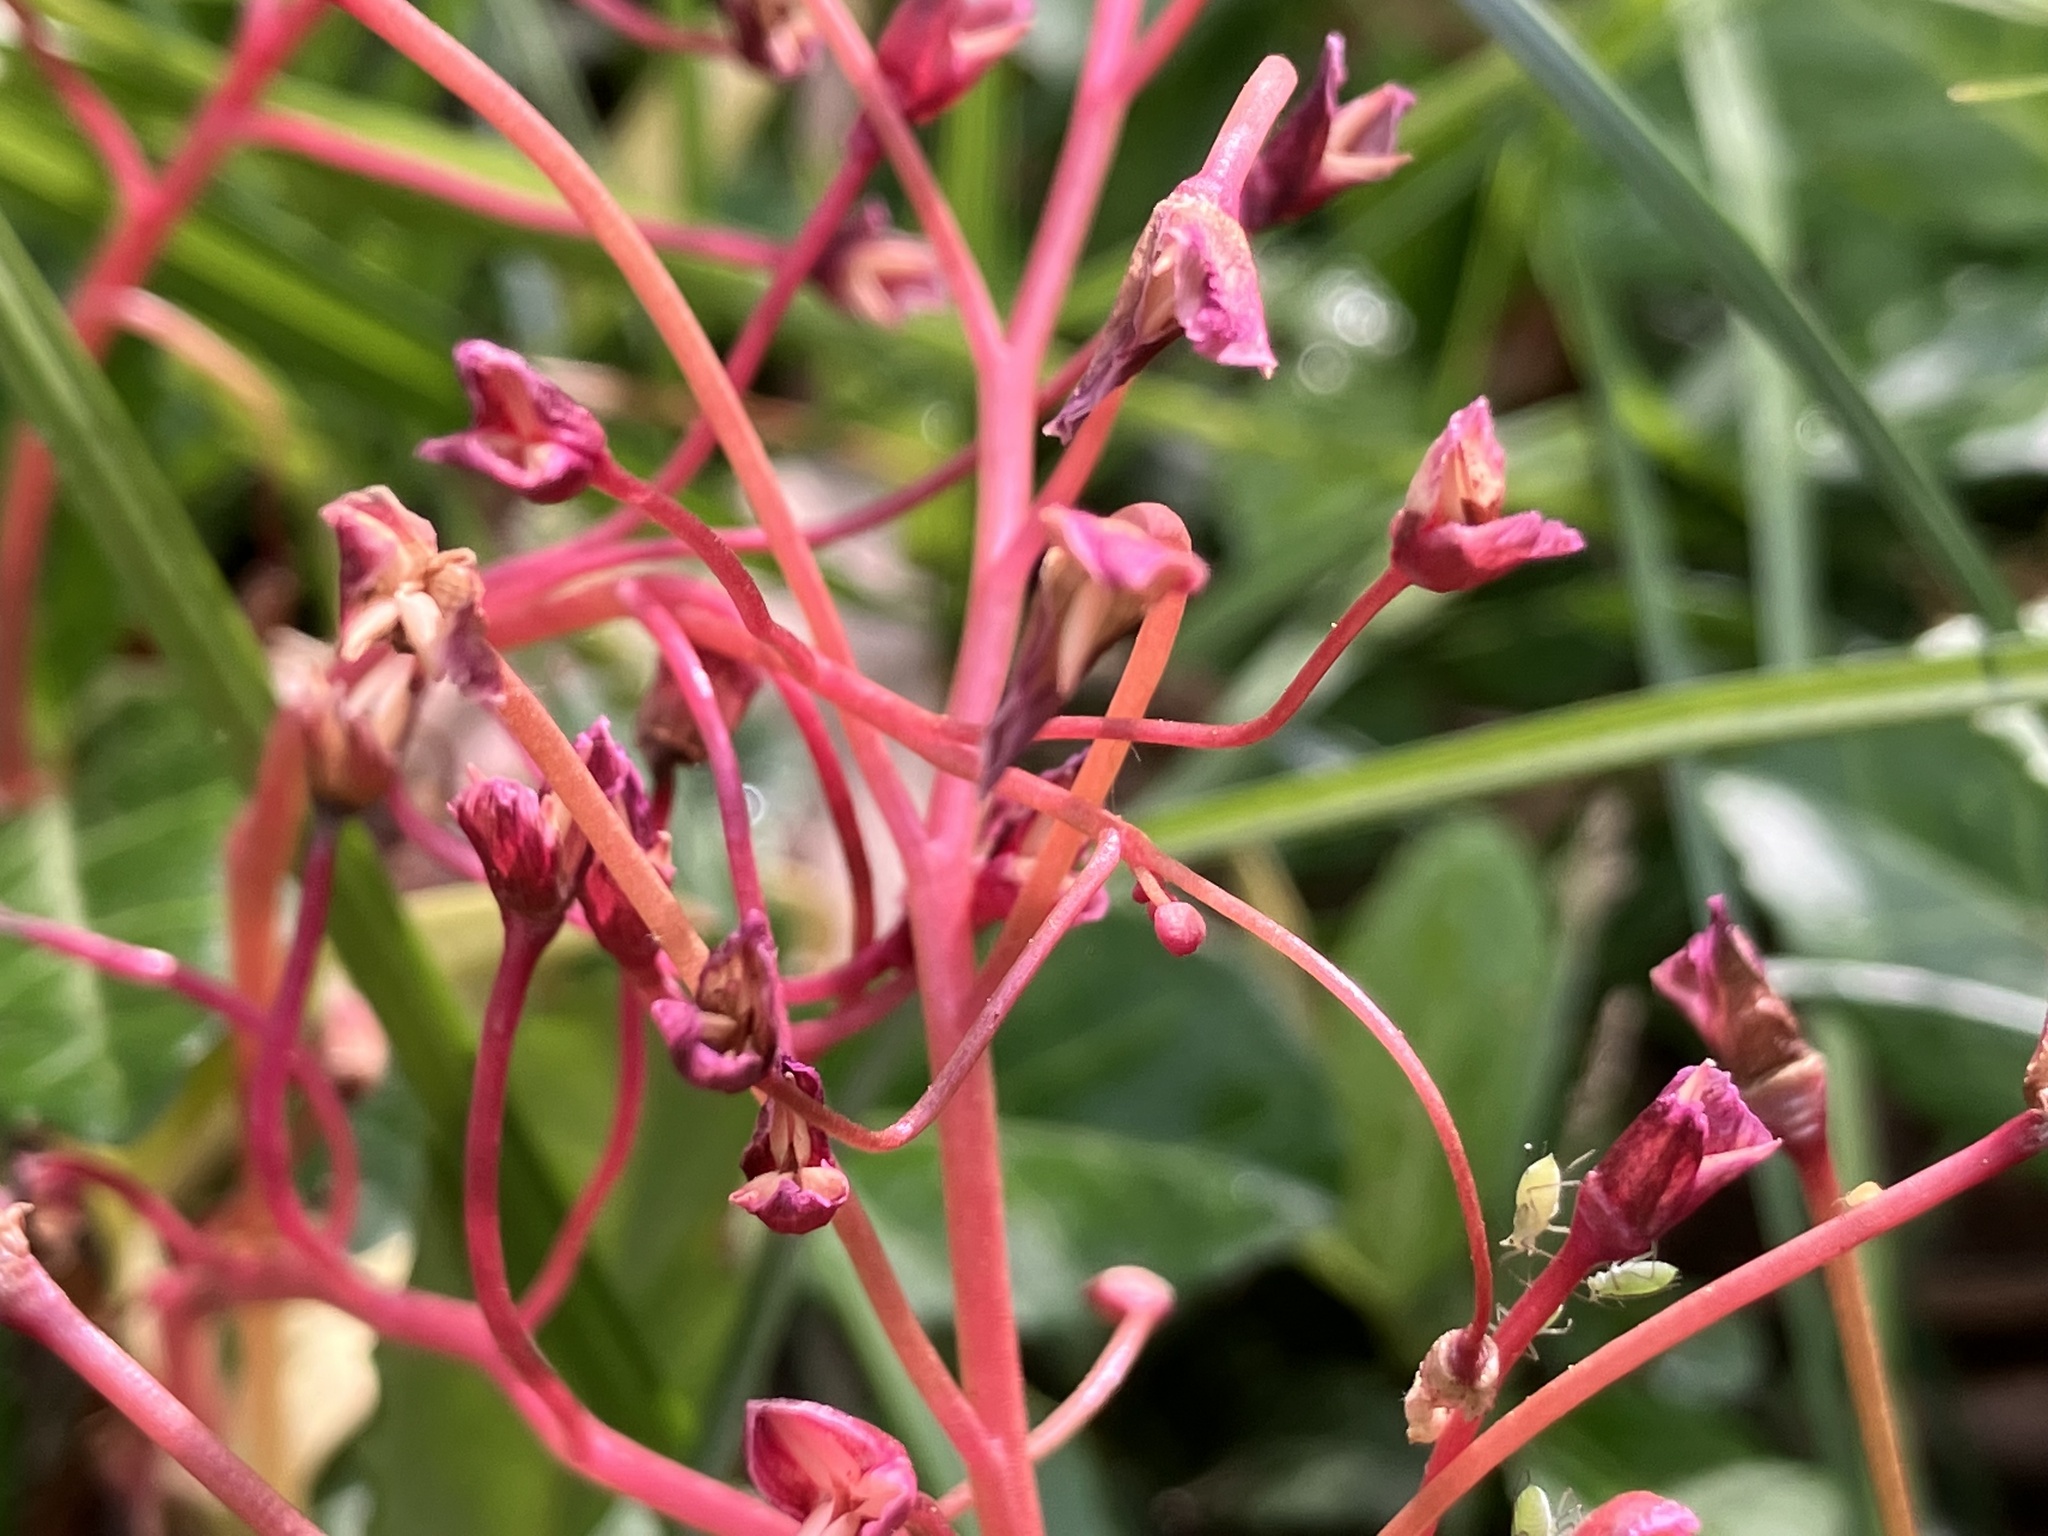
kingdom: Plantae
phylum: Tracheophyta
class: Magnoliopsida
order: Caryophyllales
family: Montiaceae
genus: Claytonia
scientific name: Claytonia virginica
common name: Virginia springbeauty
